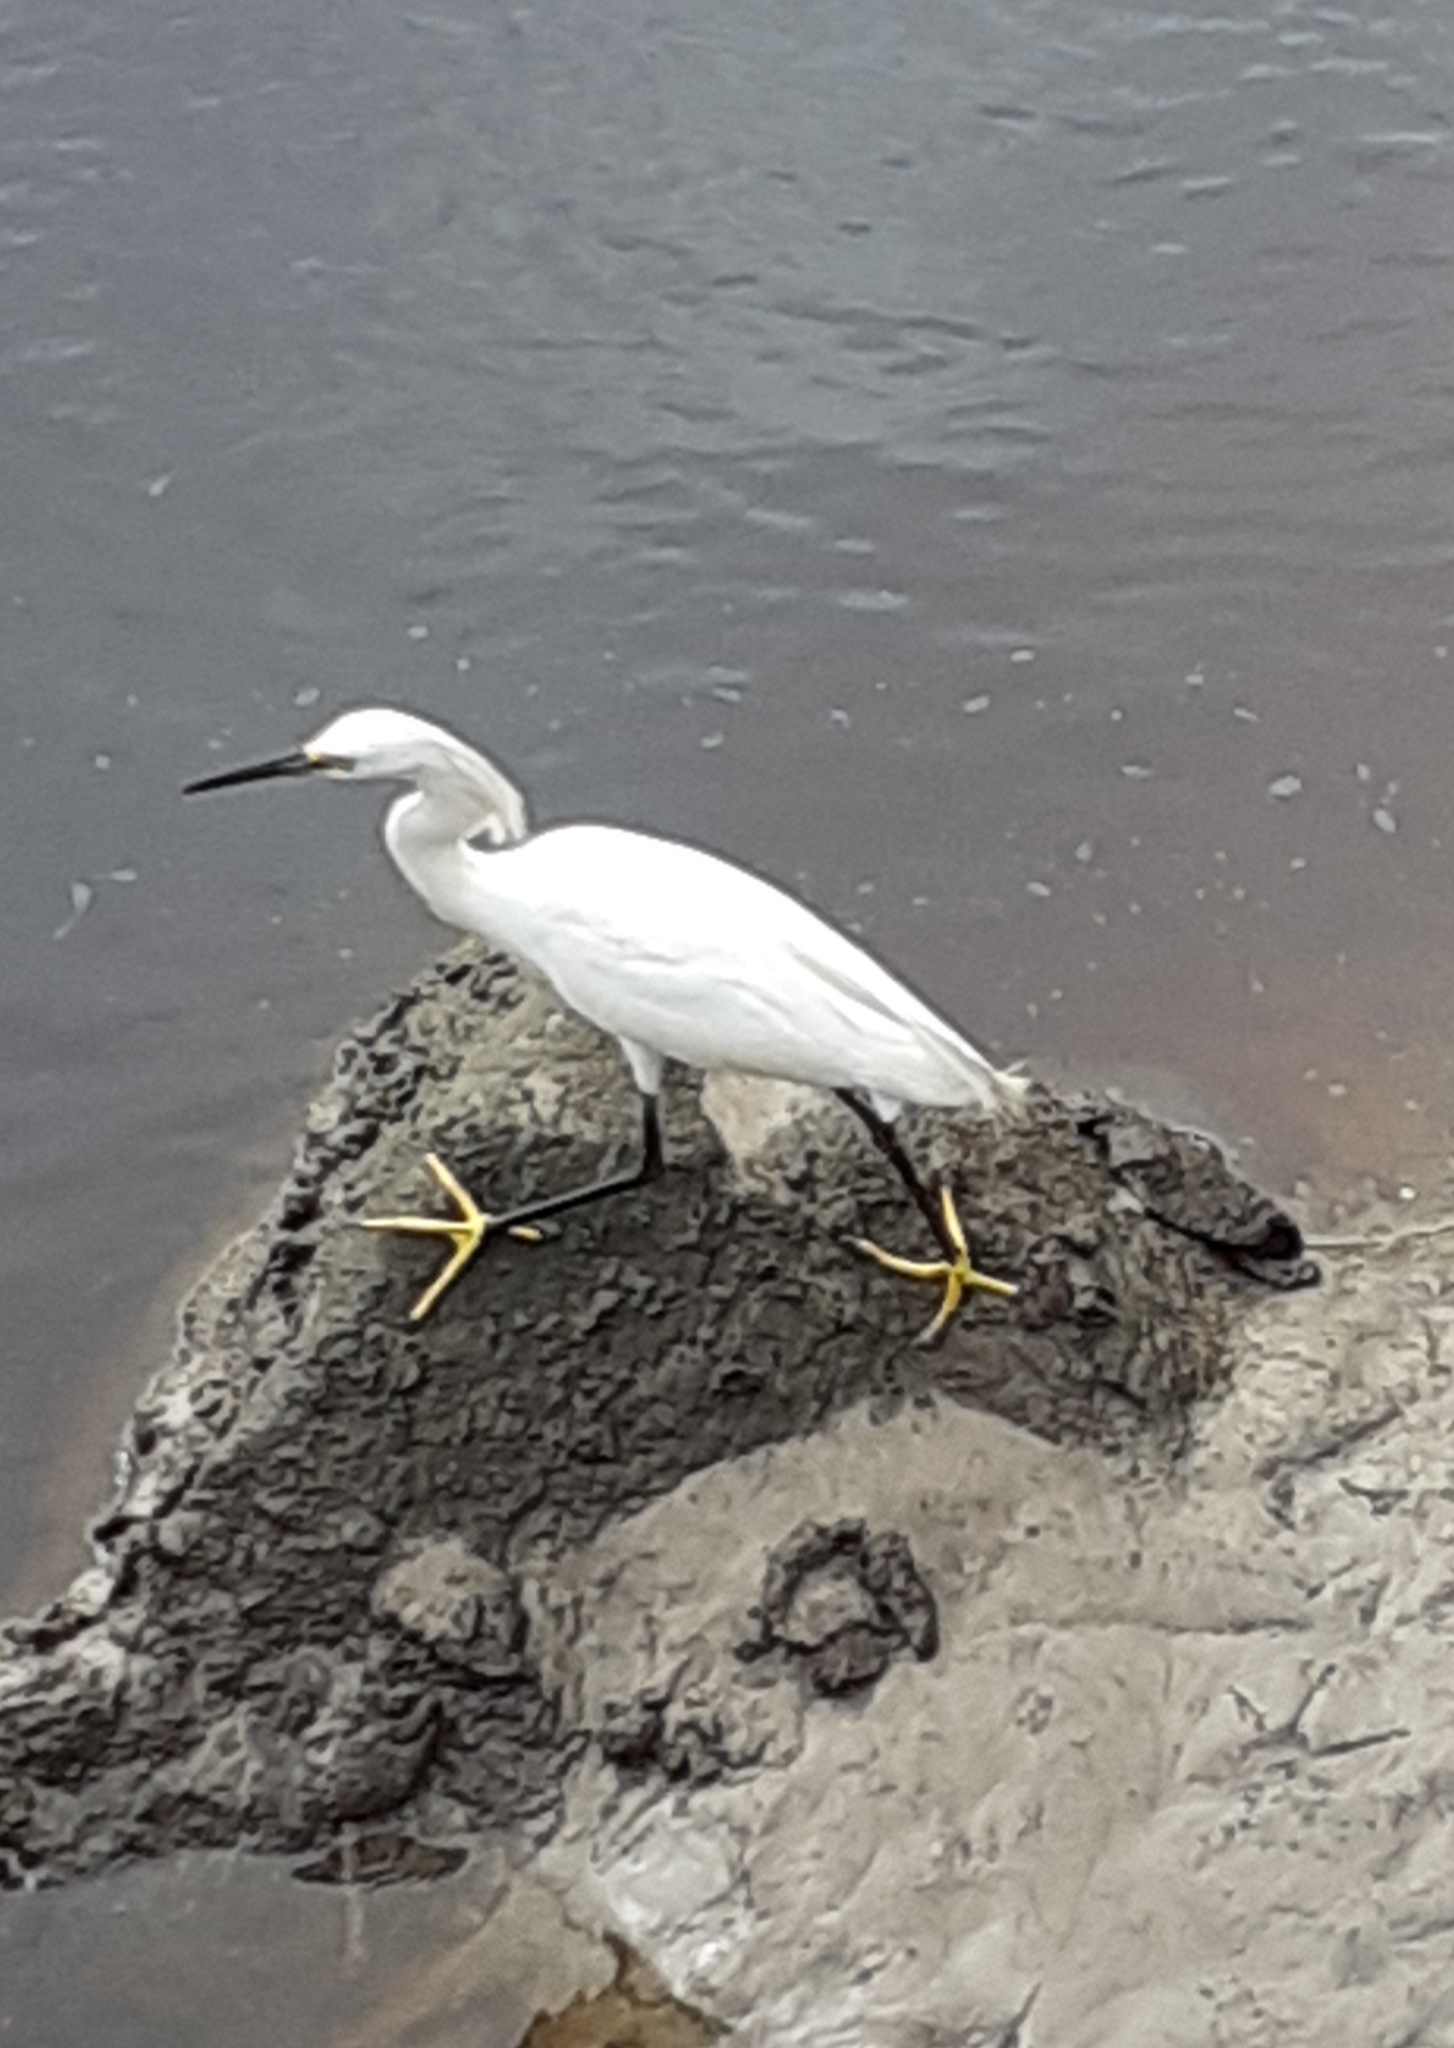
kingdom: Animalia
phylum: Chordata
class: Aves
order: Pelecaniformes
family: Ardeidae
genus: Egretta
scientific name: Egretta thula
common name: Snowy egret
